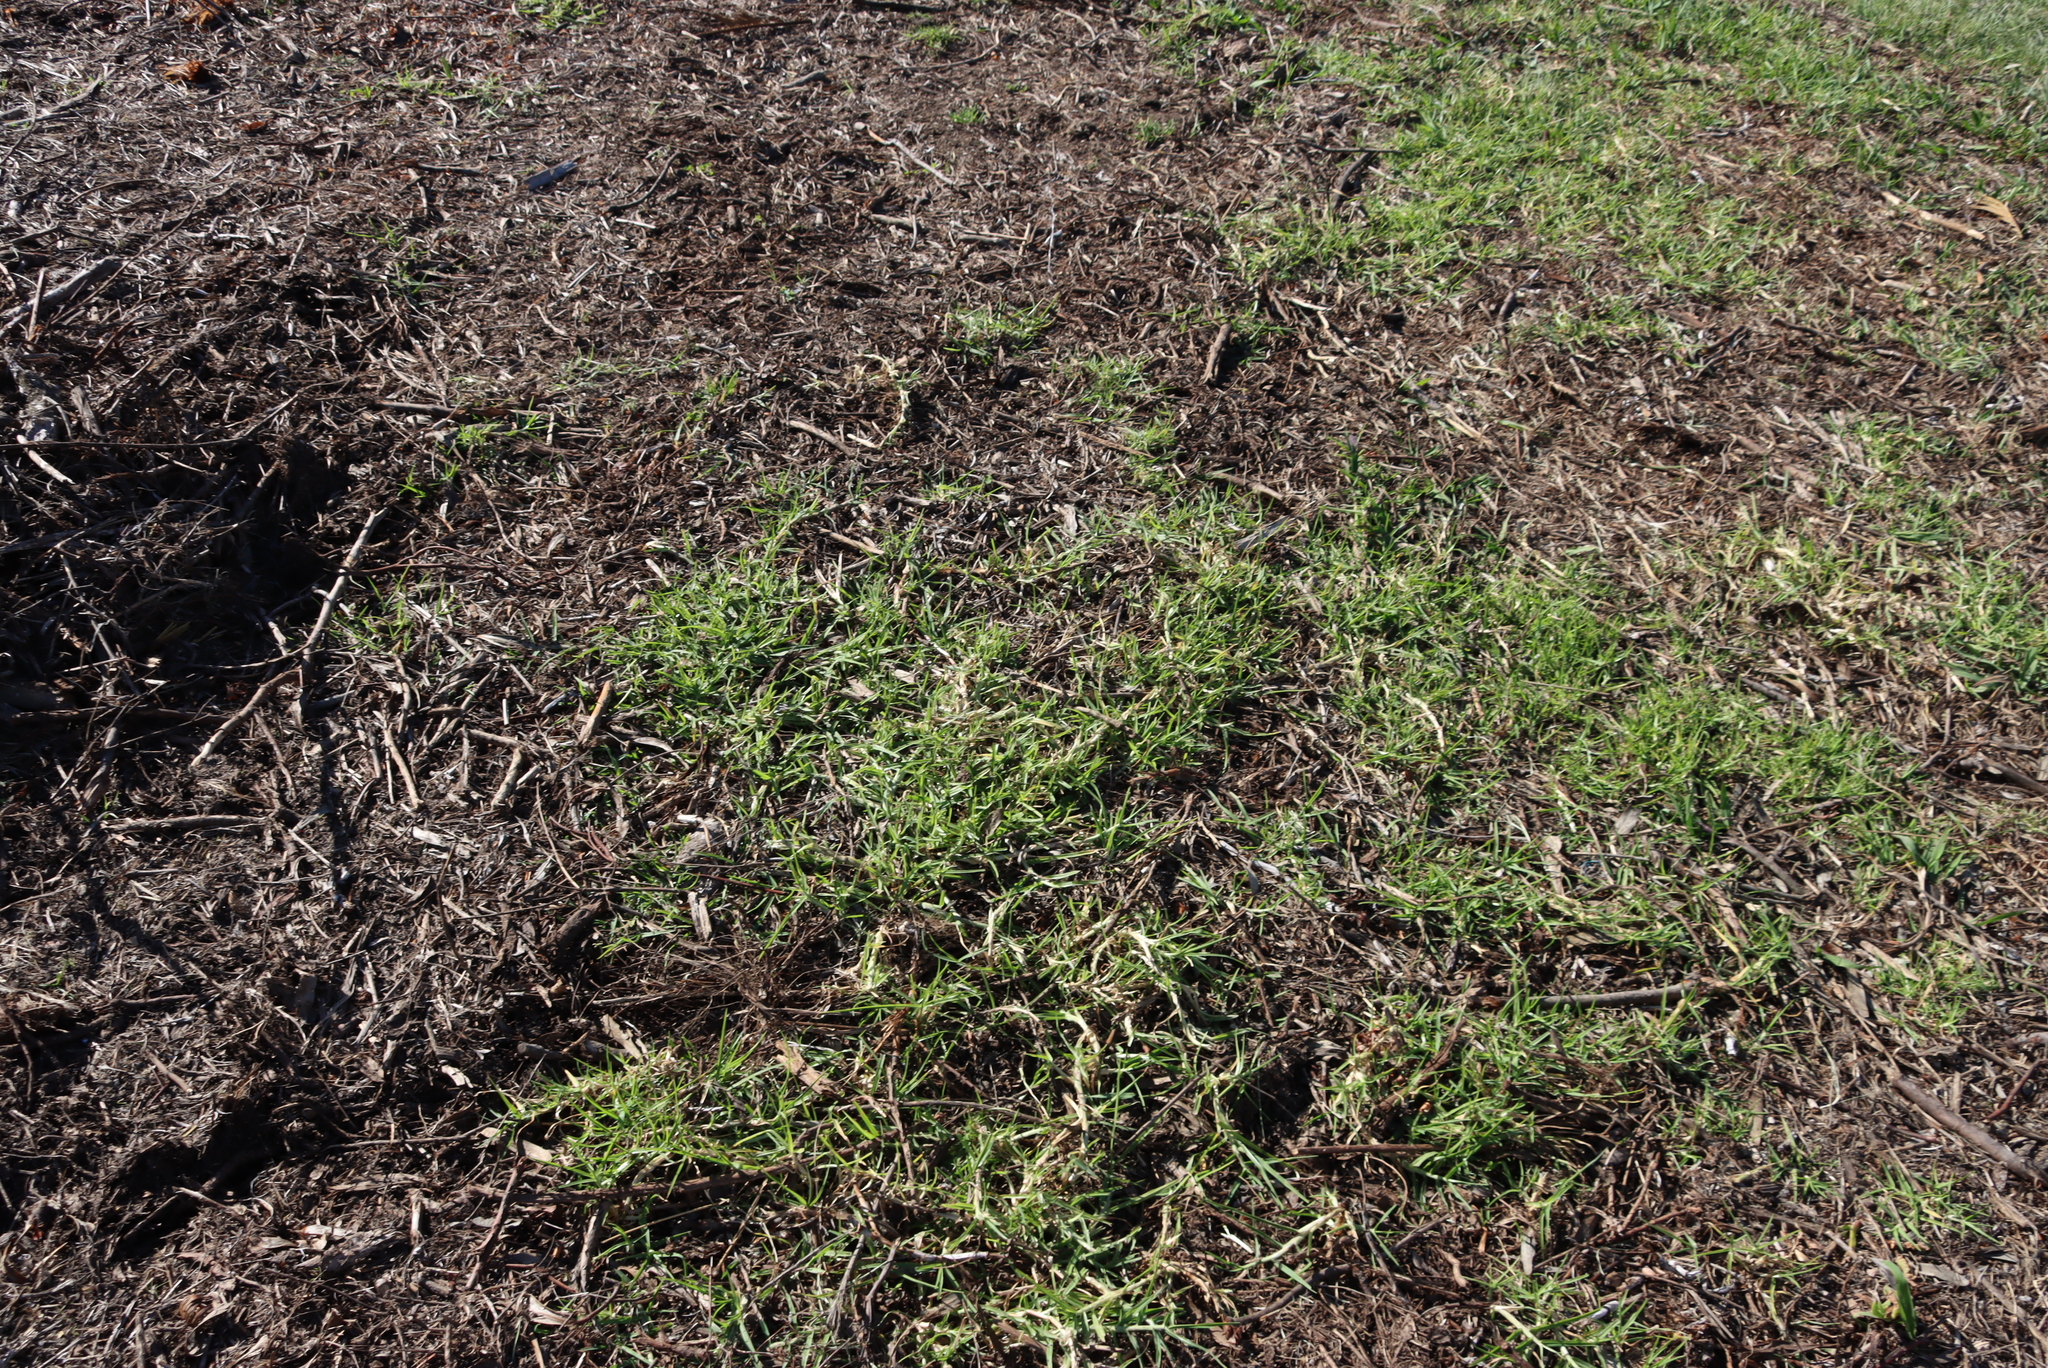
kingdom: Plantae
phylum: Tracheophyta
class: Liliopsida
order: Poales
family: Poaceae
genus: Cenchrus
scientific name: Cenchrus clandestinus
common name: Kikuyugrass
